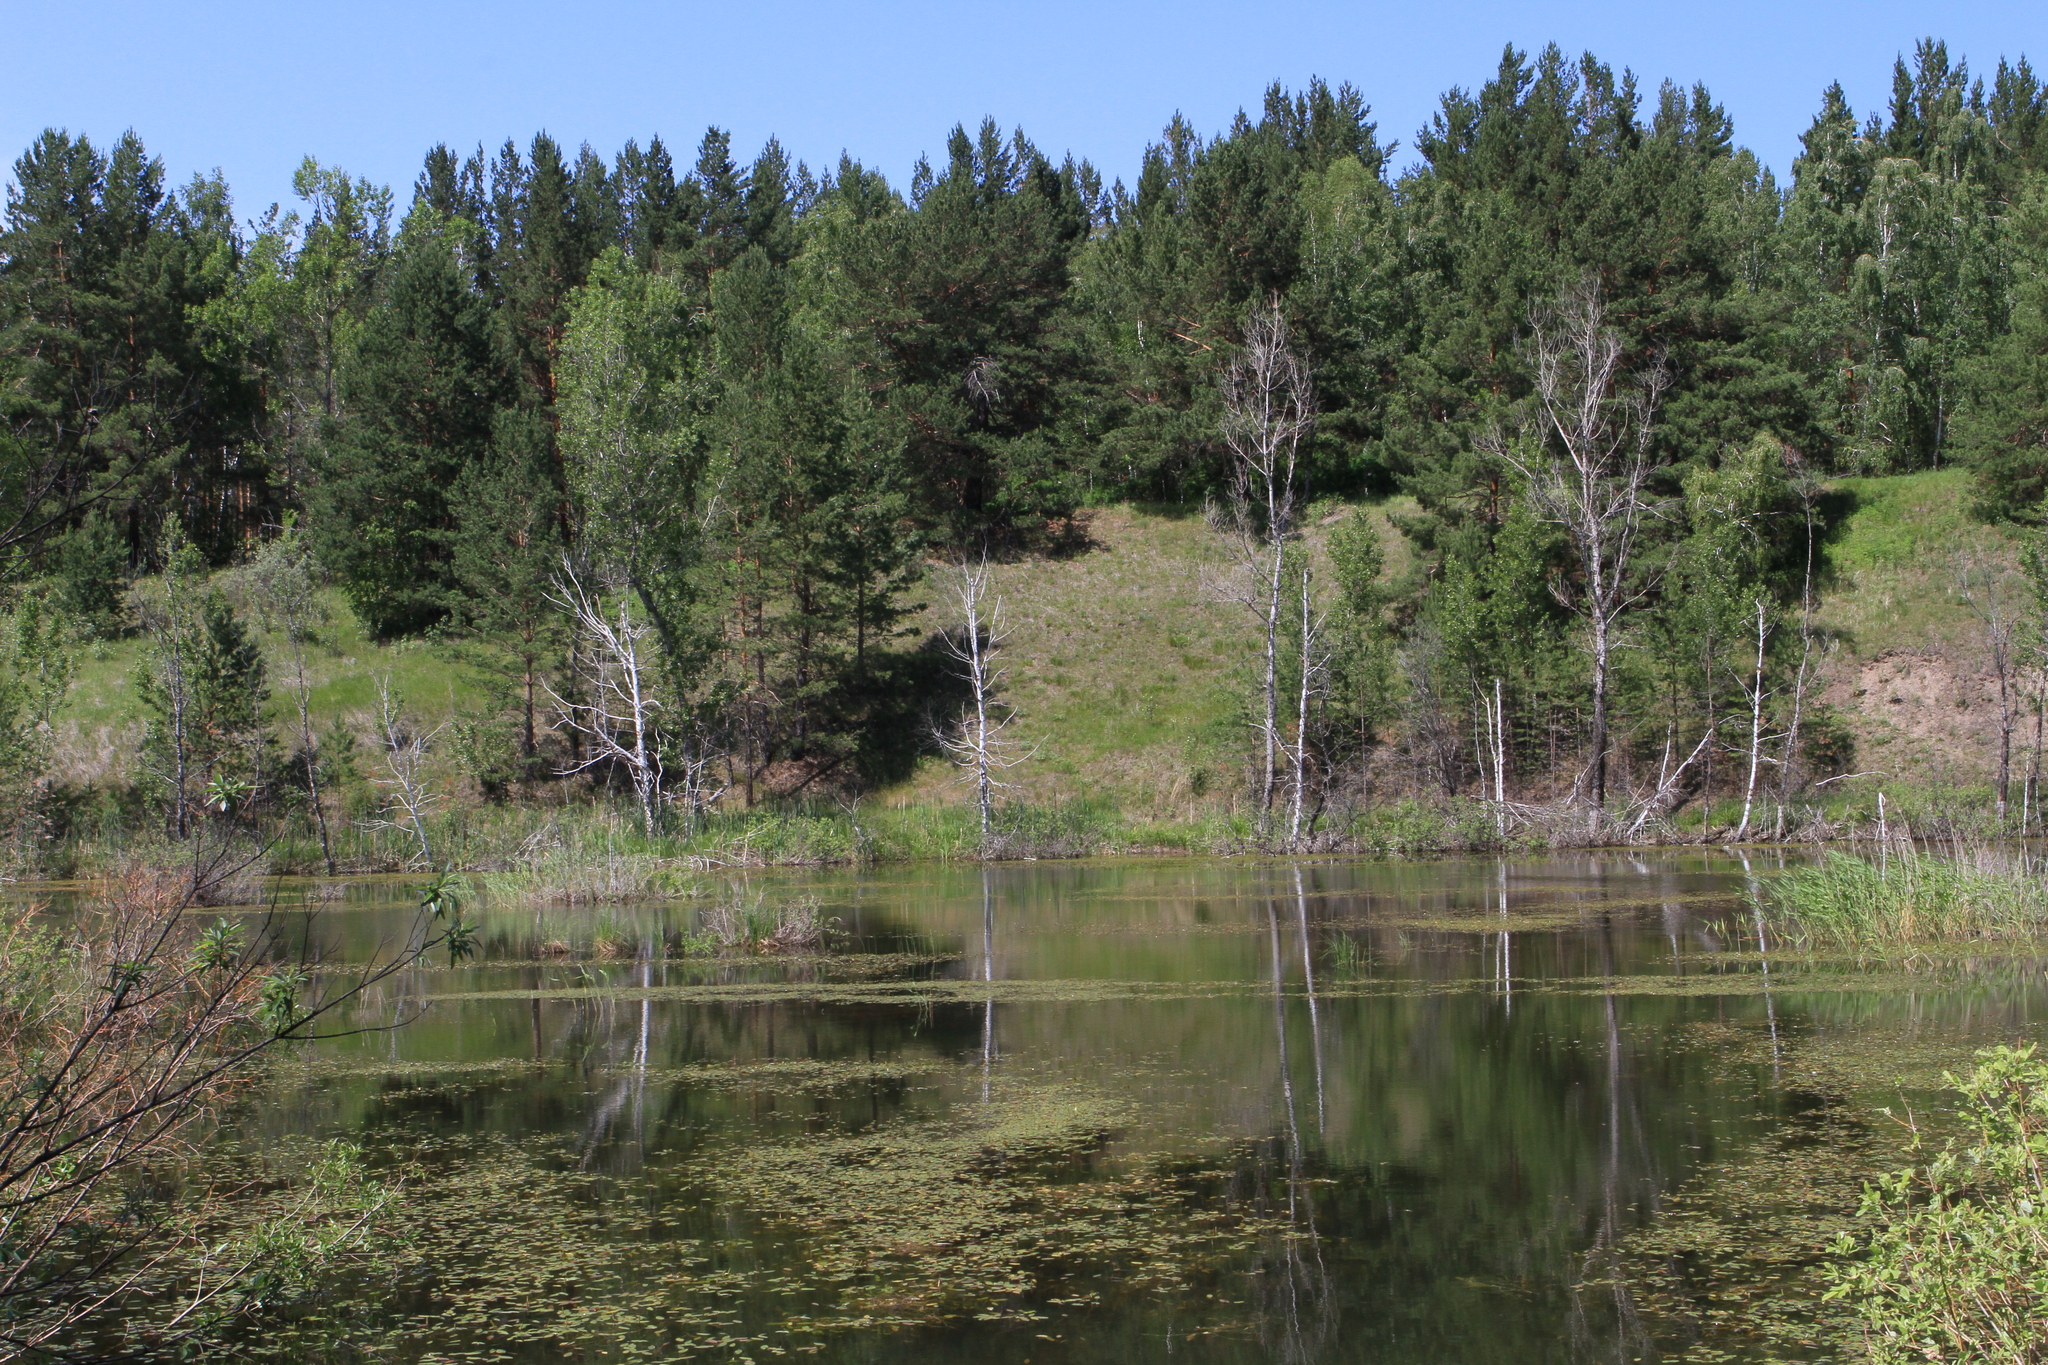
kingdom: Plantae
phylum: Tracheophyta
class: Pinopsida
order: Pinales
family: Pinaceae
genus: Pinus
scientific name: Pinus sylvestris
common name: Scots pine
